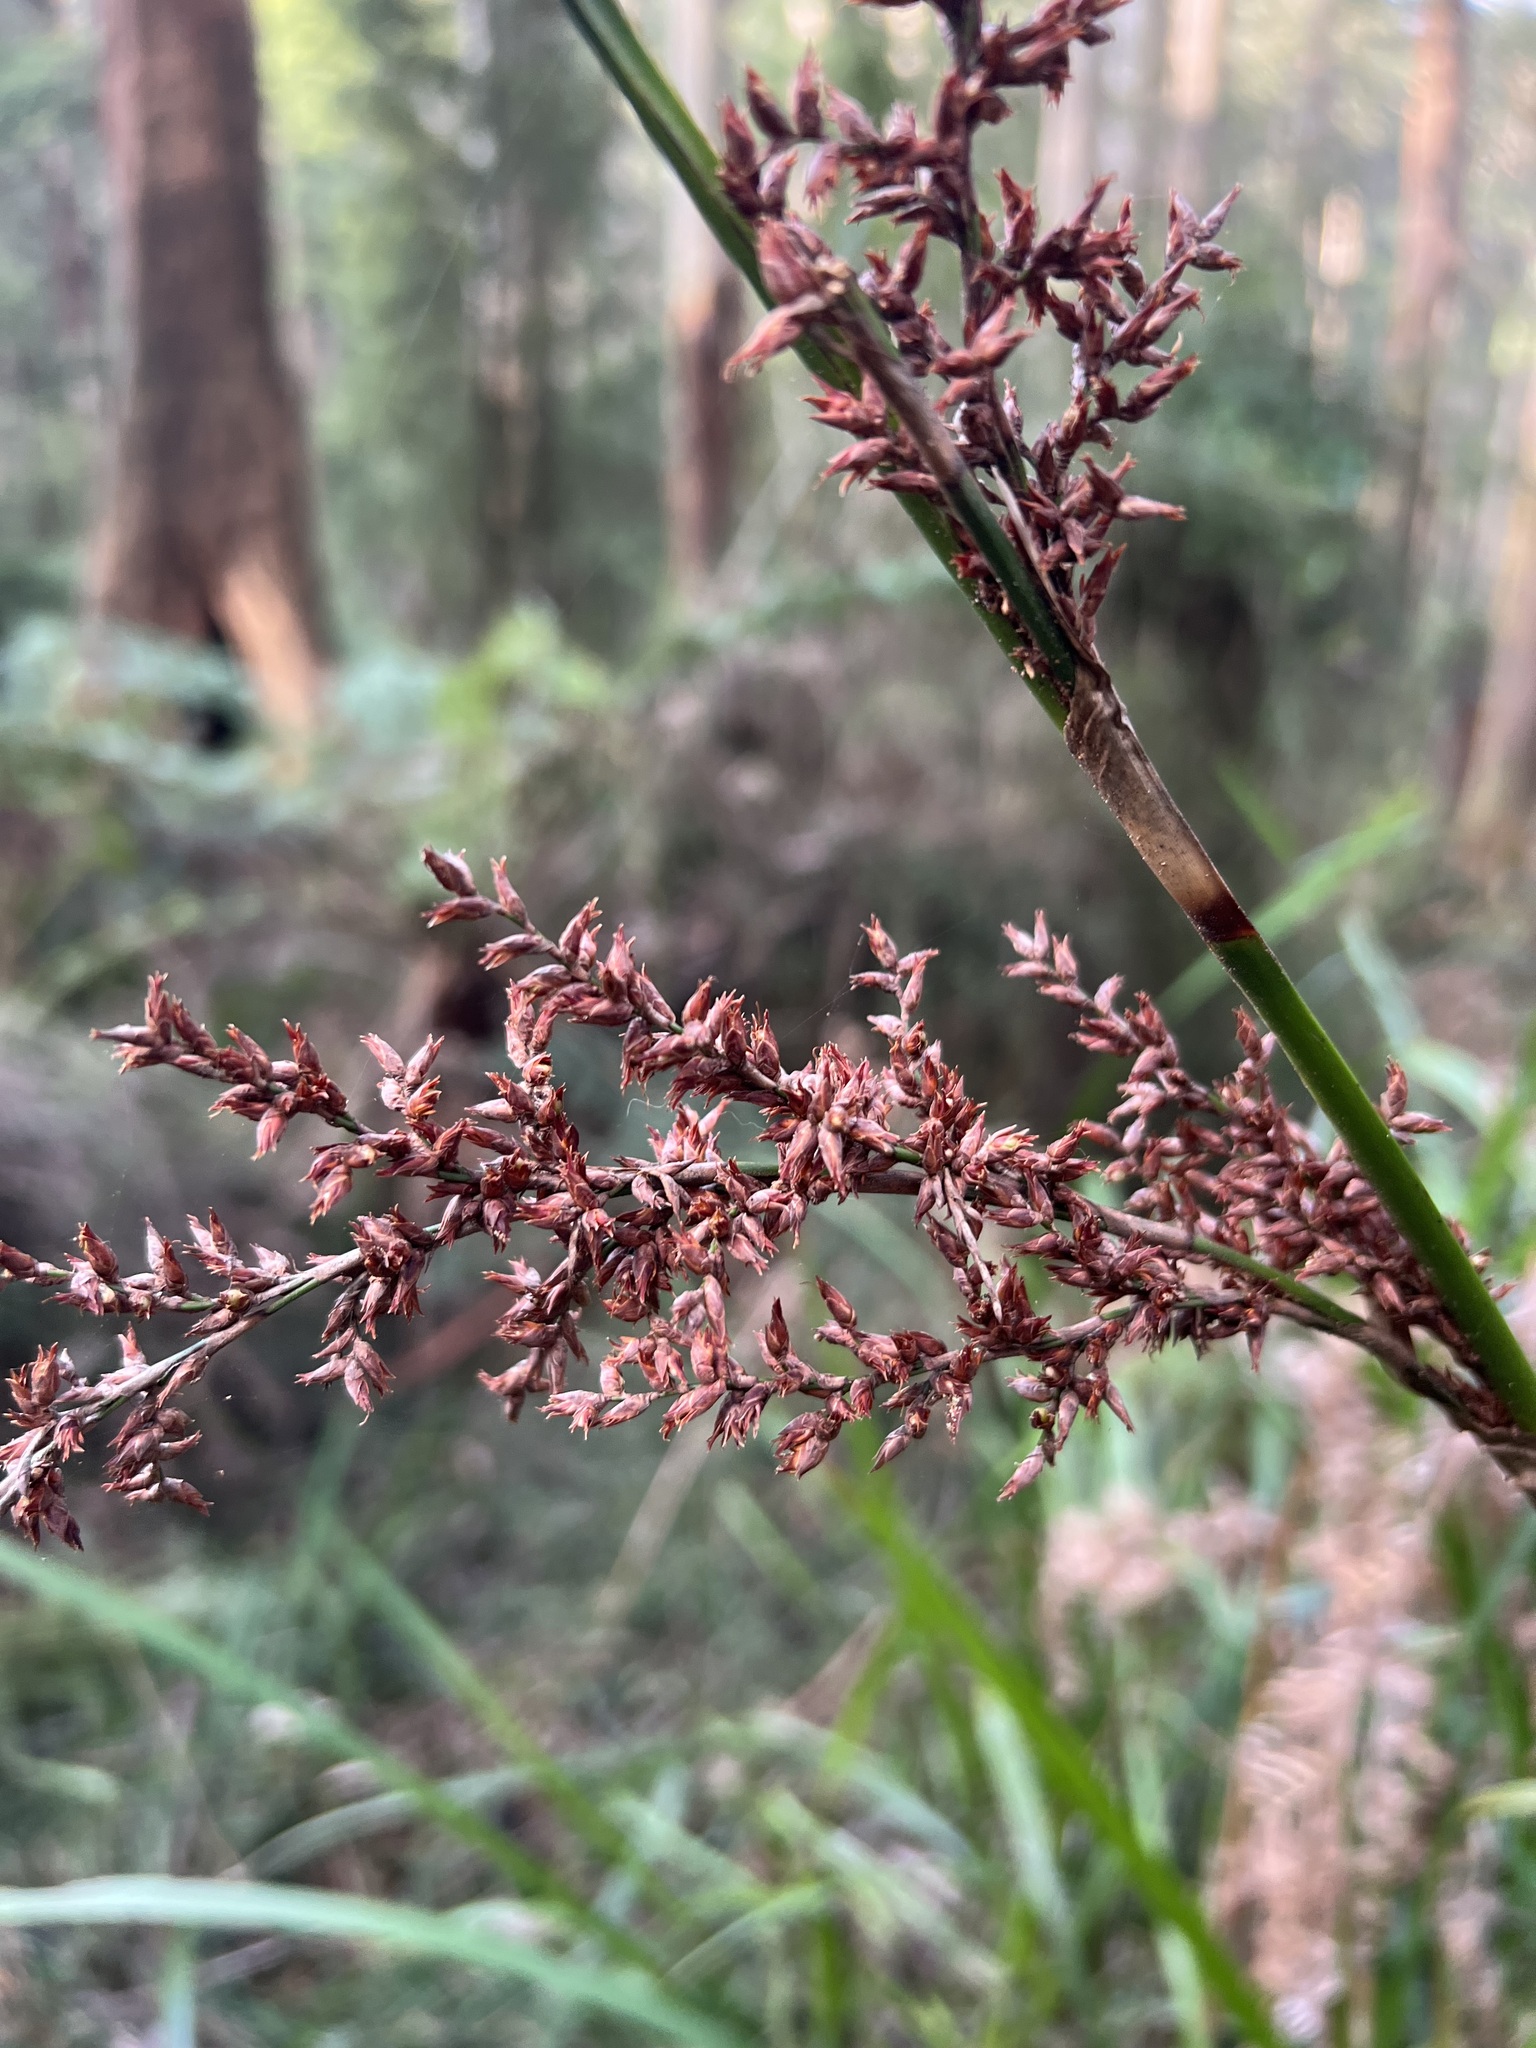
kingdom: Plantae
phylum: Tracheophyta
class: Liliopsida
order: Poales
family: Cyperaceae
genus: Lepidosperma
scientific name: Lepidosperma elatius
